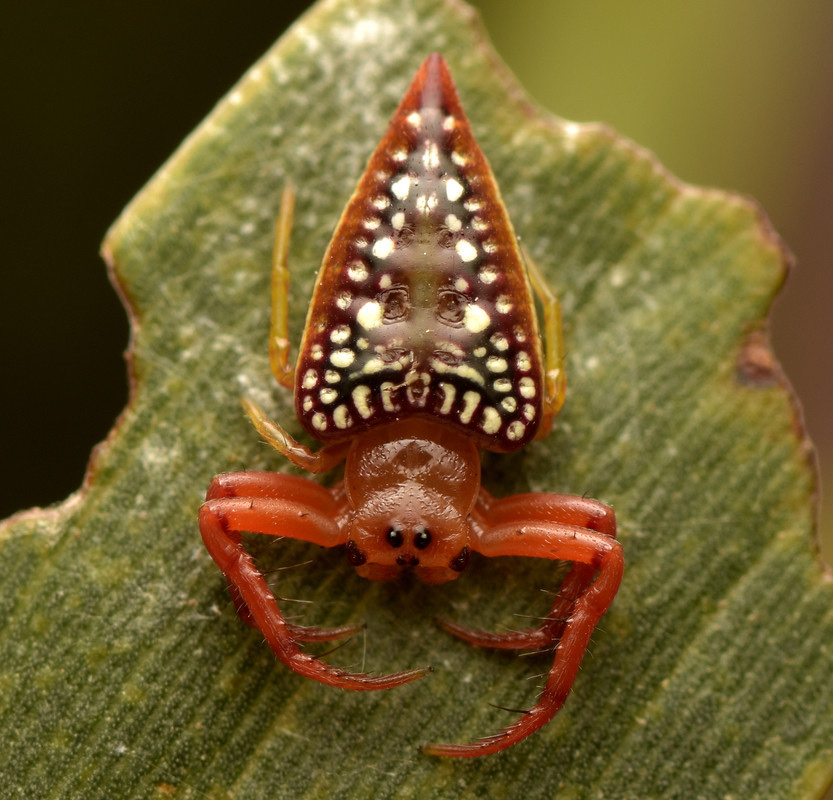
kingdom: Animalia
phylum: Arthropoda
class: Arachnida
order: Araneae
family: Arkyidae
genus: Arkys
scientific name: Arkys walckenaeri
